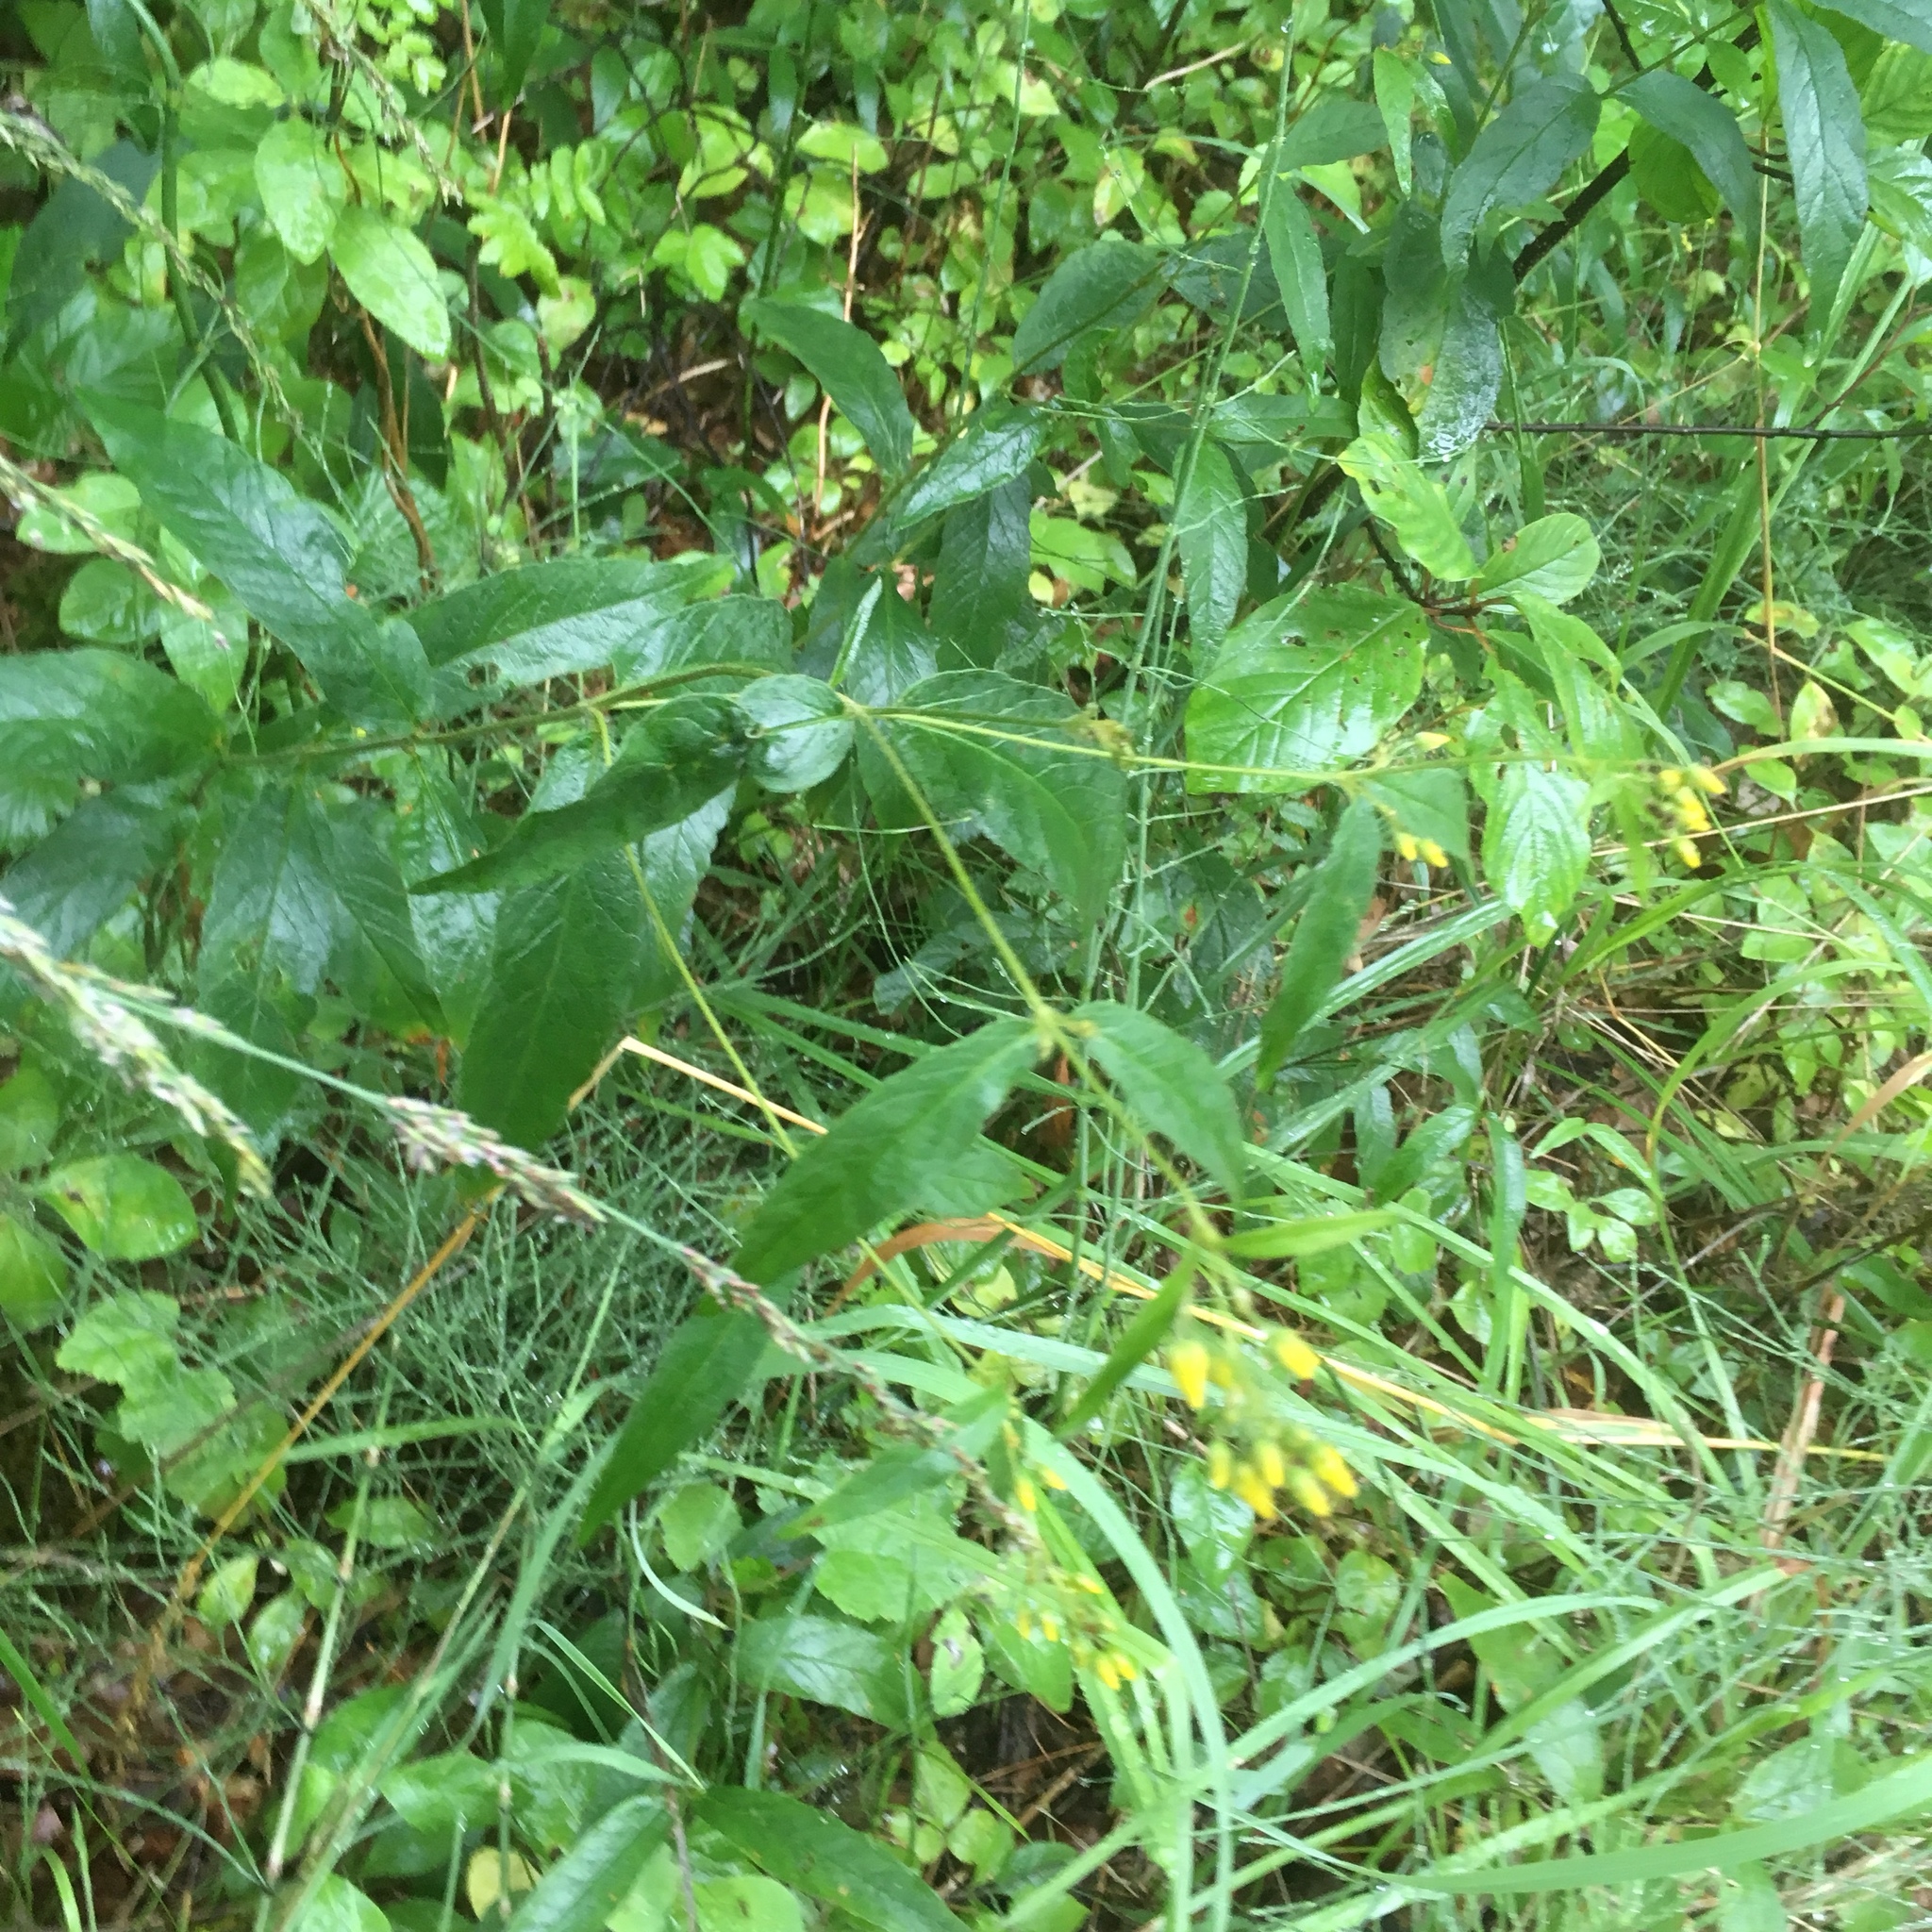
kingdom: Plantae
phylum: Tracheophyta
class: Magnoliopsida
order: Ericales
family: Primulaceae
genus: Lysimachia
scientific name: Lysimachia vulgaris
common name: Yellow loosestrife
